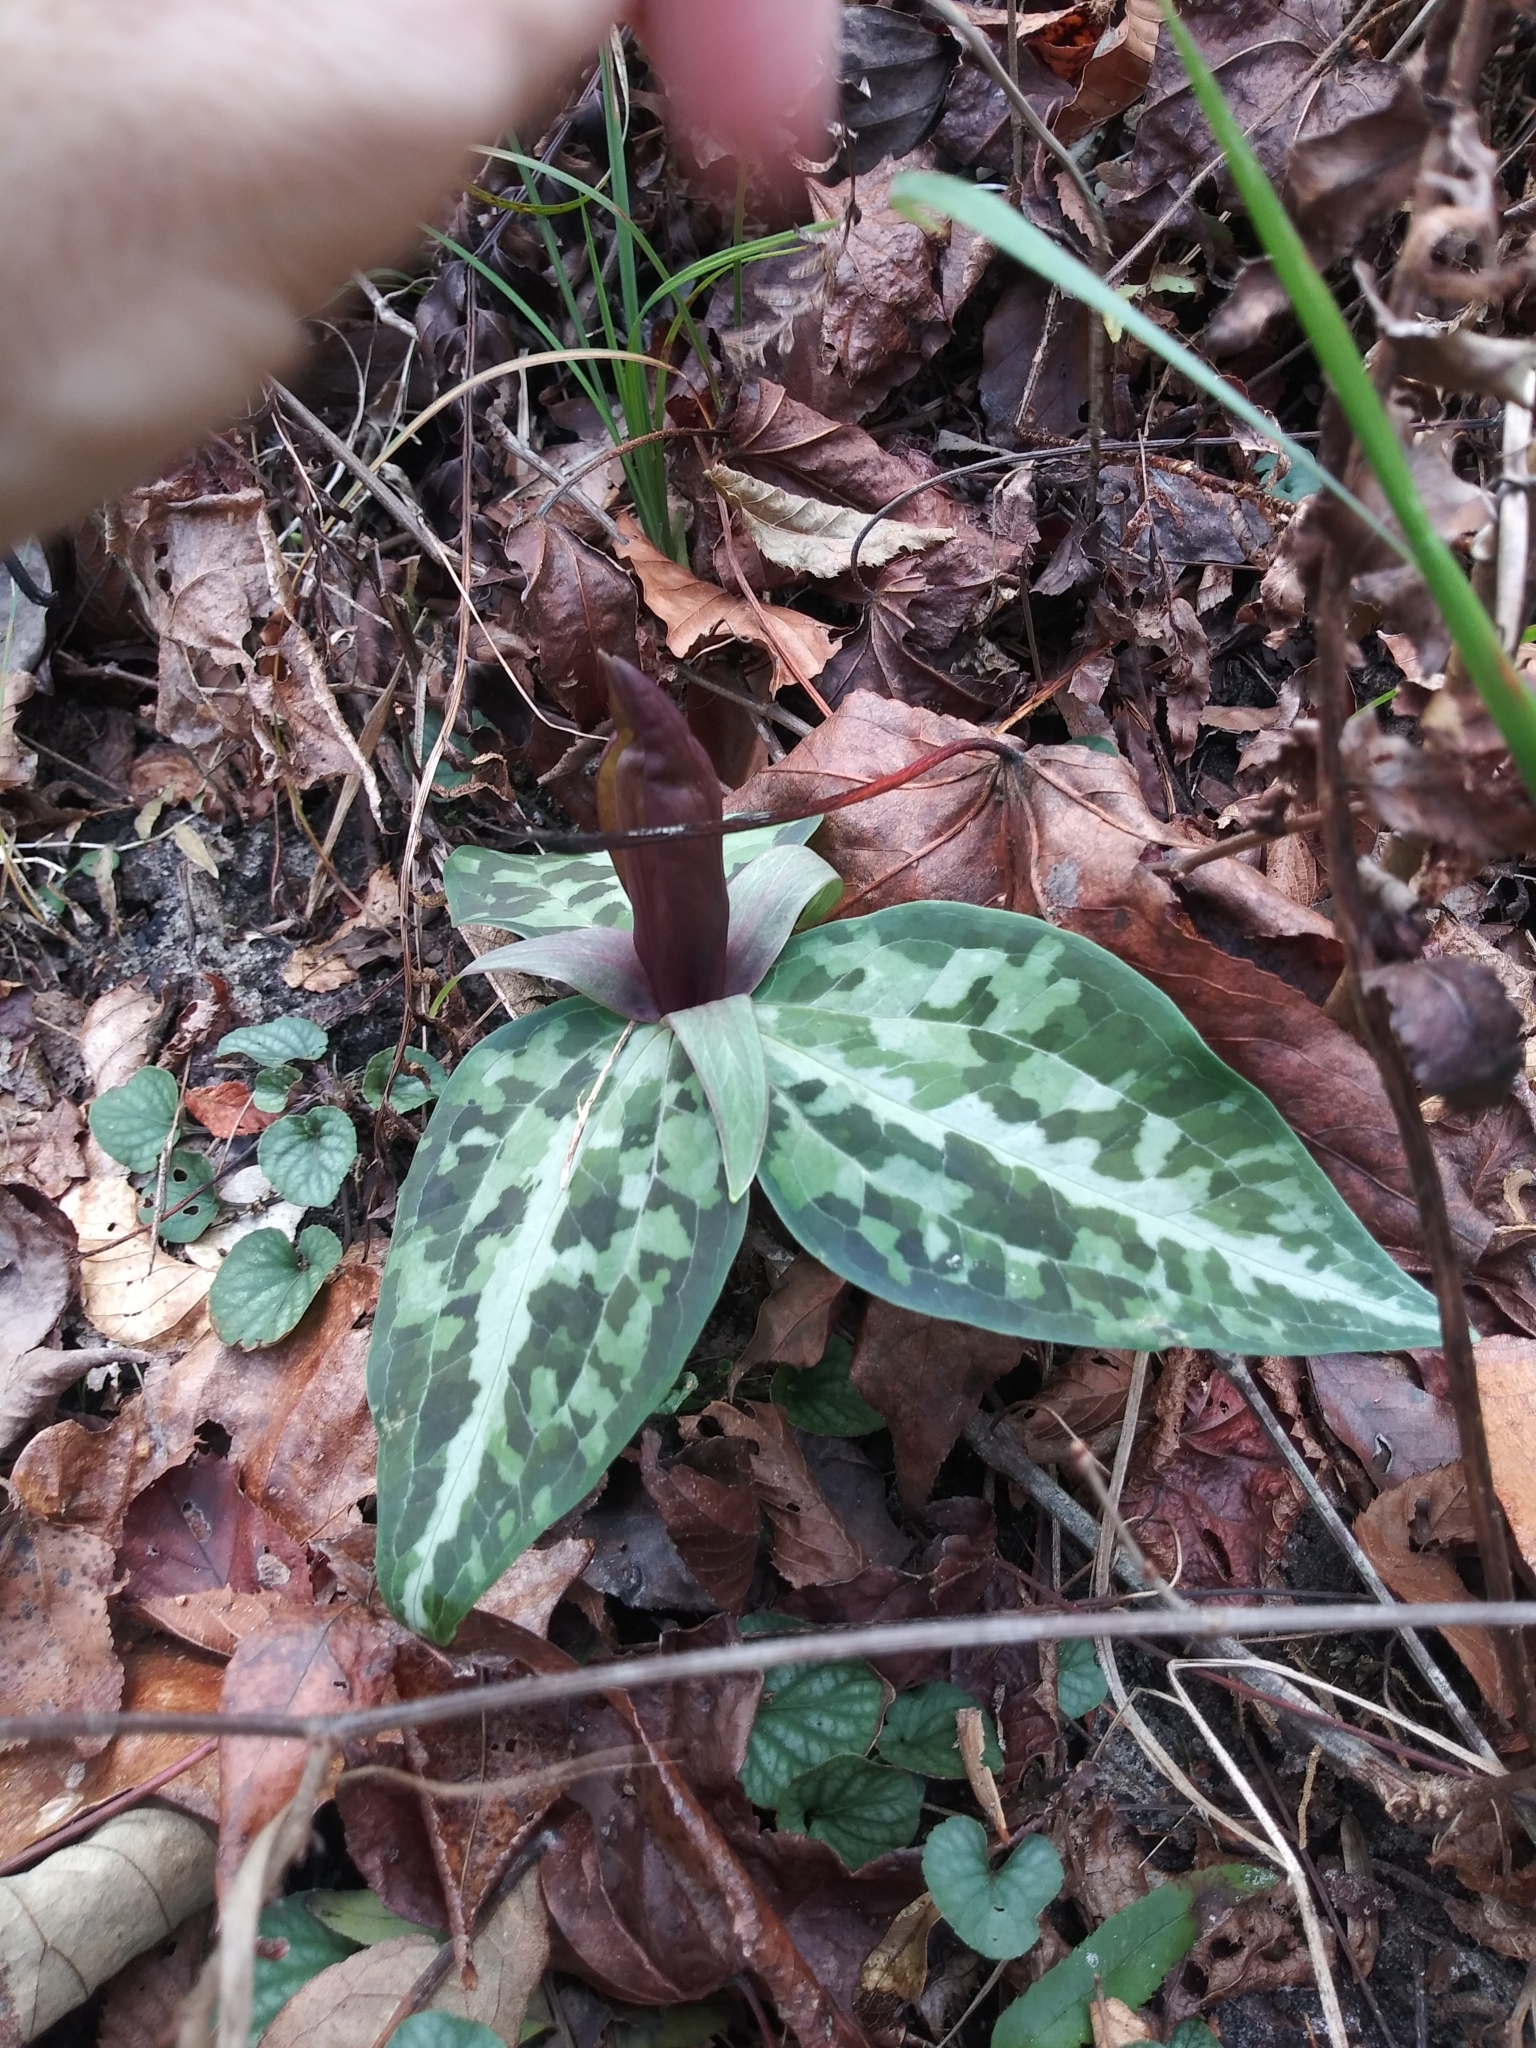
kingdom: Plantae
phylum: Tracheophyta
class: Liliopsida
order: Liliales
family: Melanthiaceae
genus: Trillium
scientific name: Trillium underwoodii
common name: Longbract wakerobin
